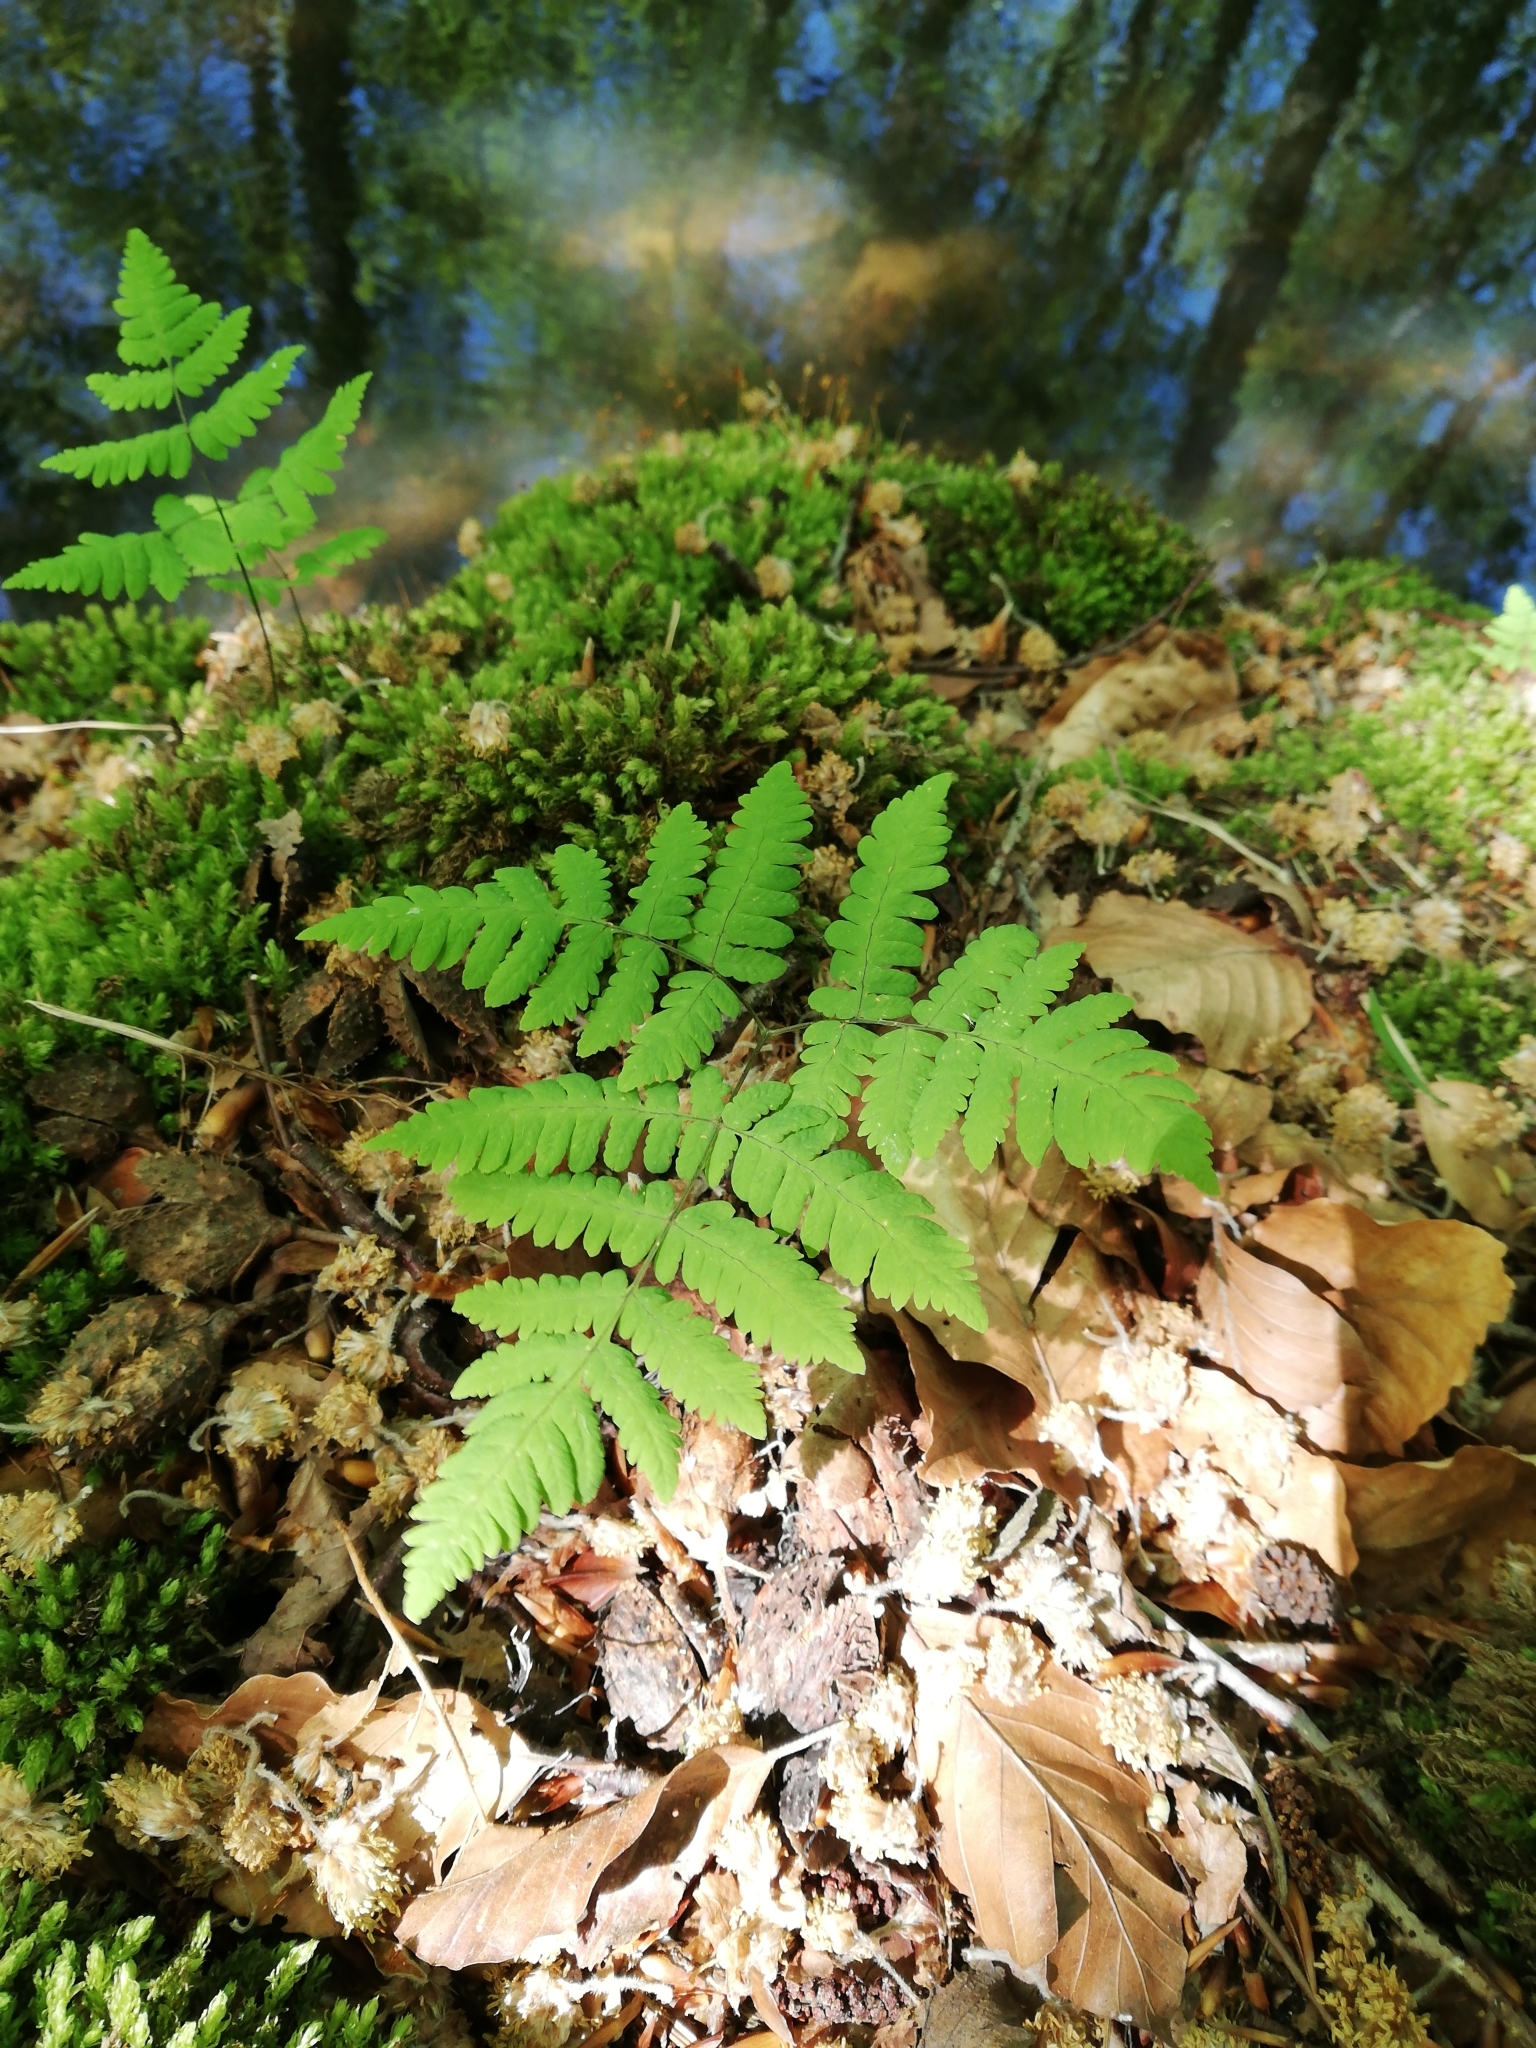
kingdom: Plantae
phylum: Tracheophyta
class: Polypodiopsida
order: Polypodiales
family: Cystopteridaceae
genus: Gymnocarpium
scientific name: Gymnocarpium dryopteris
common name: Oak fern
